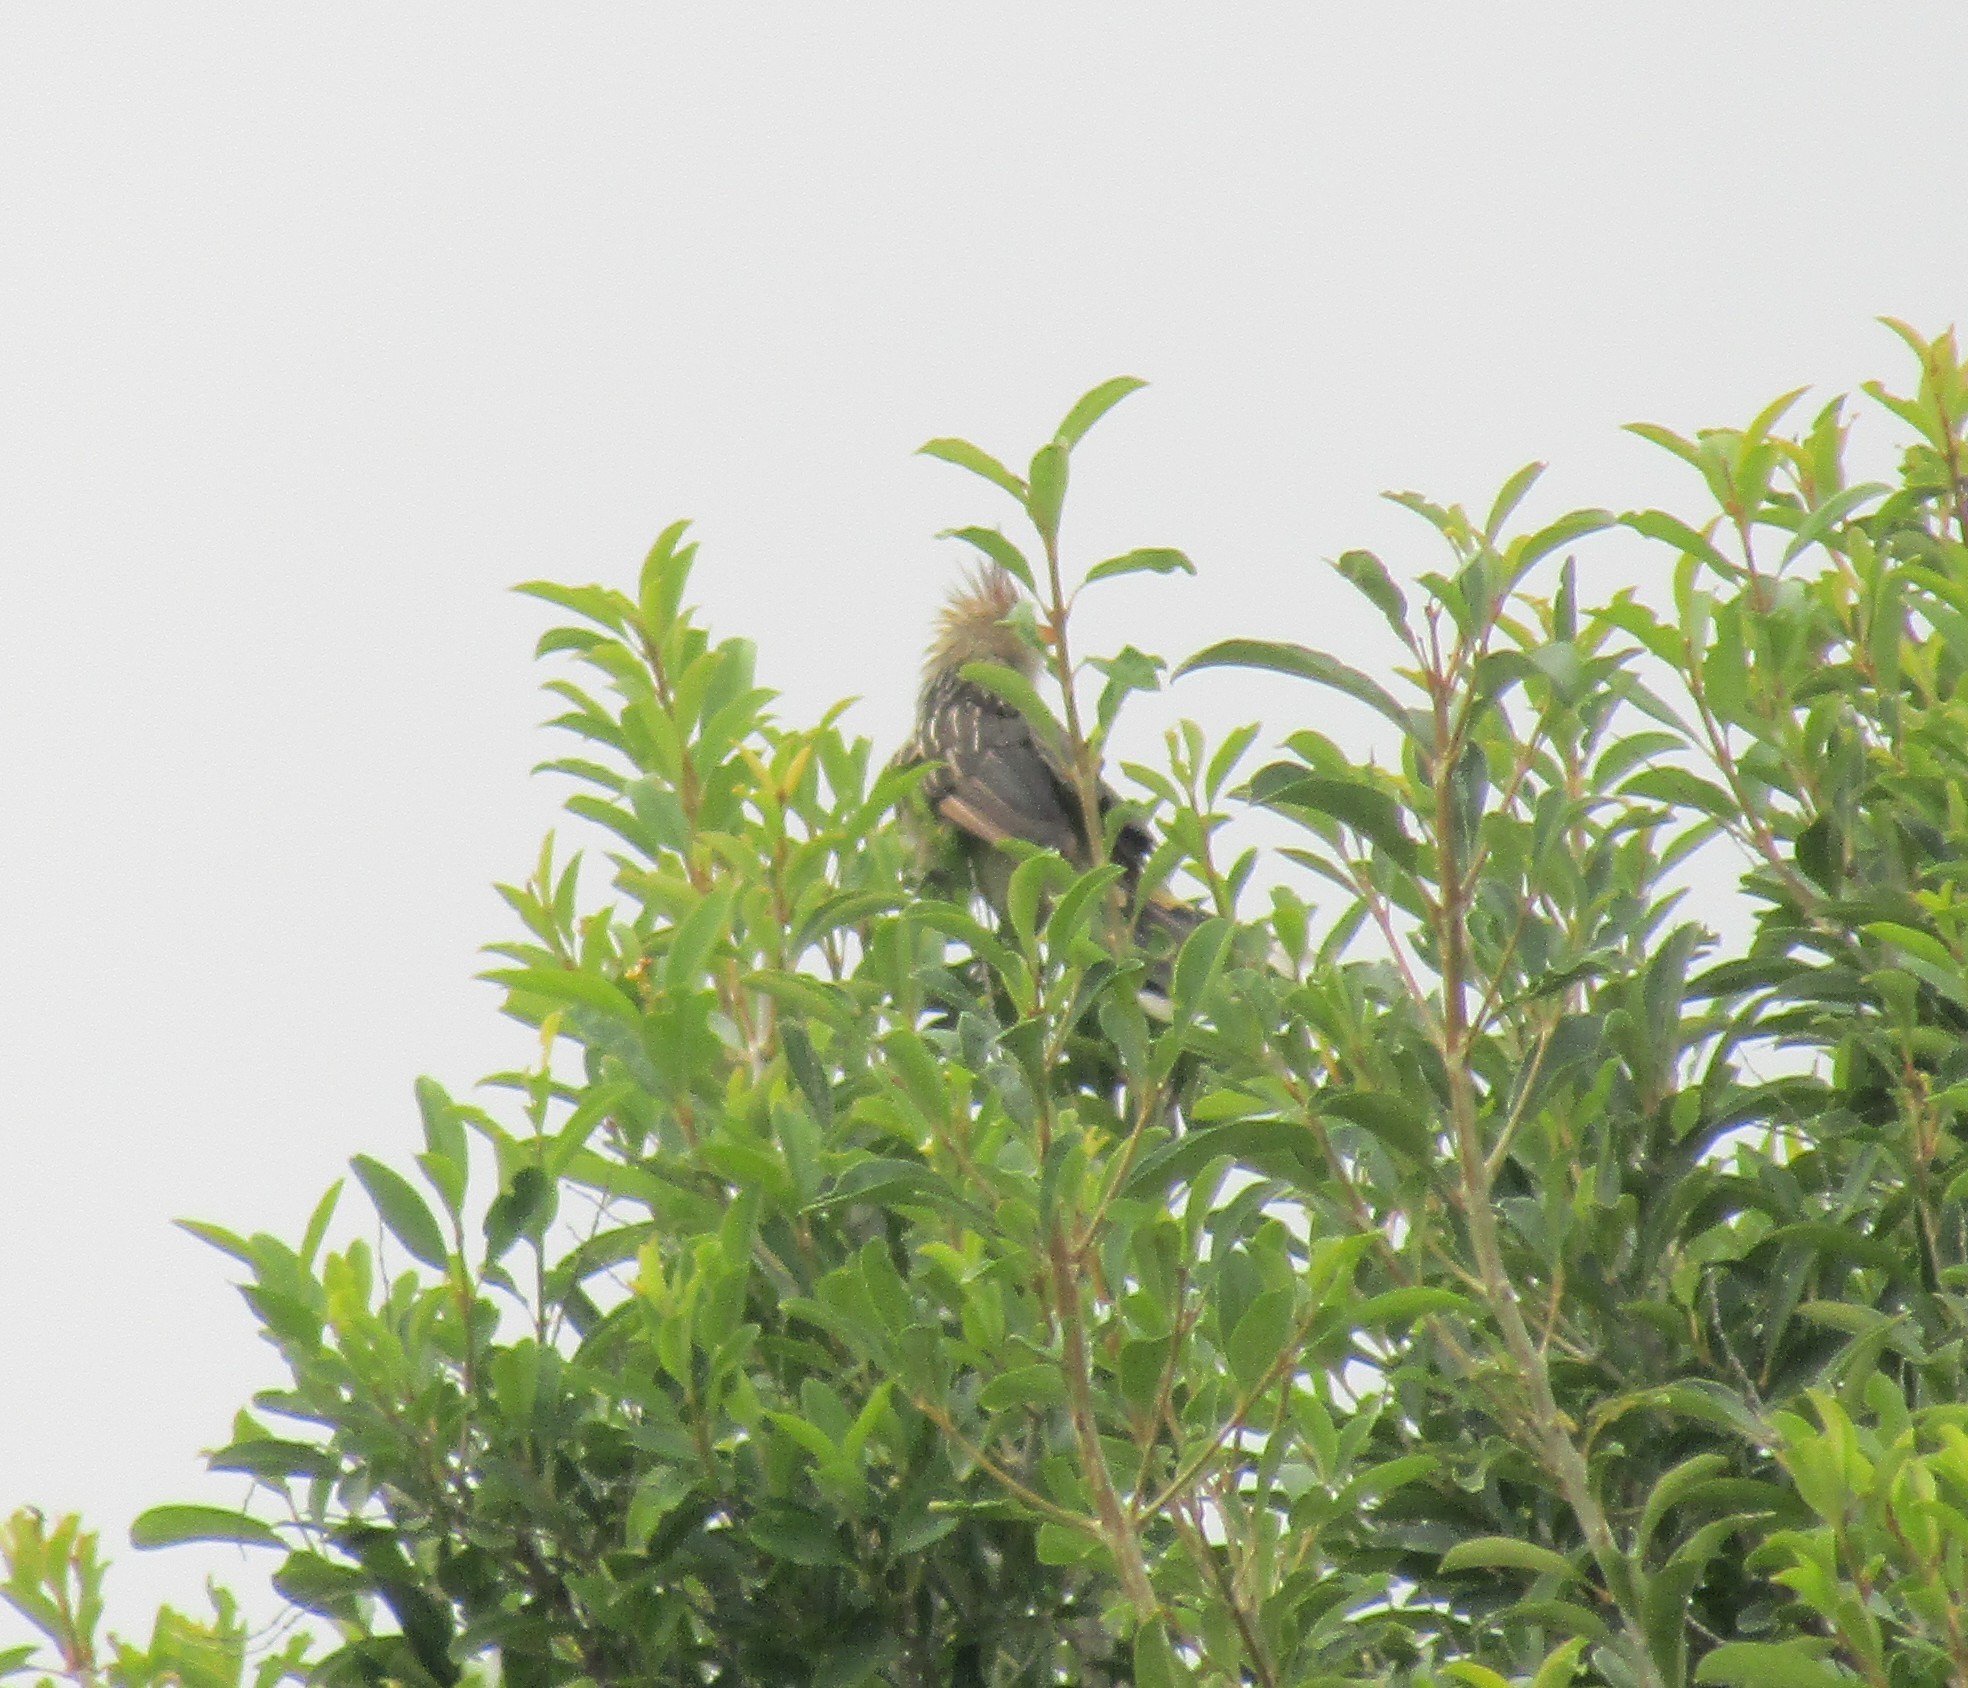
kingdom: Animalia
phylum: Chordata
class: Aves
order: Cuculiformes
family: Cuculidae
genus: Guira
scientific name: Guira guira
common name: Guira cuckoo
